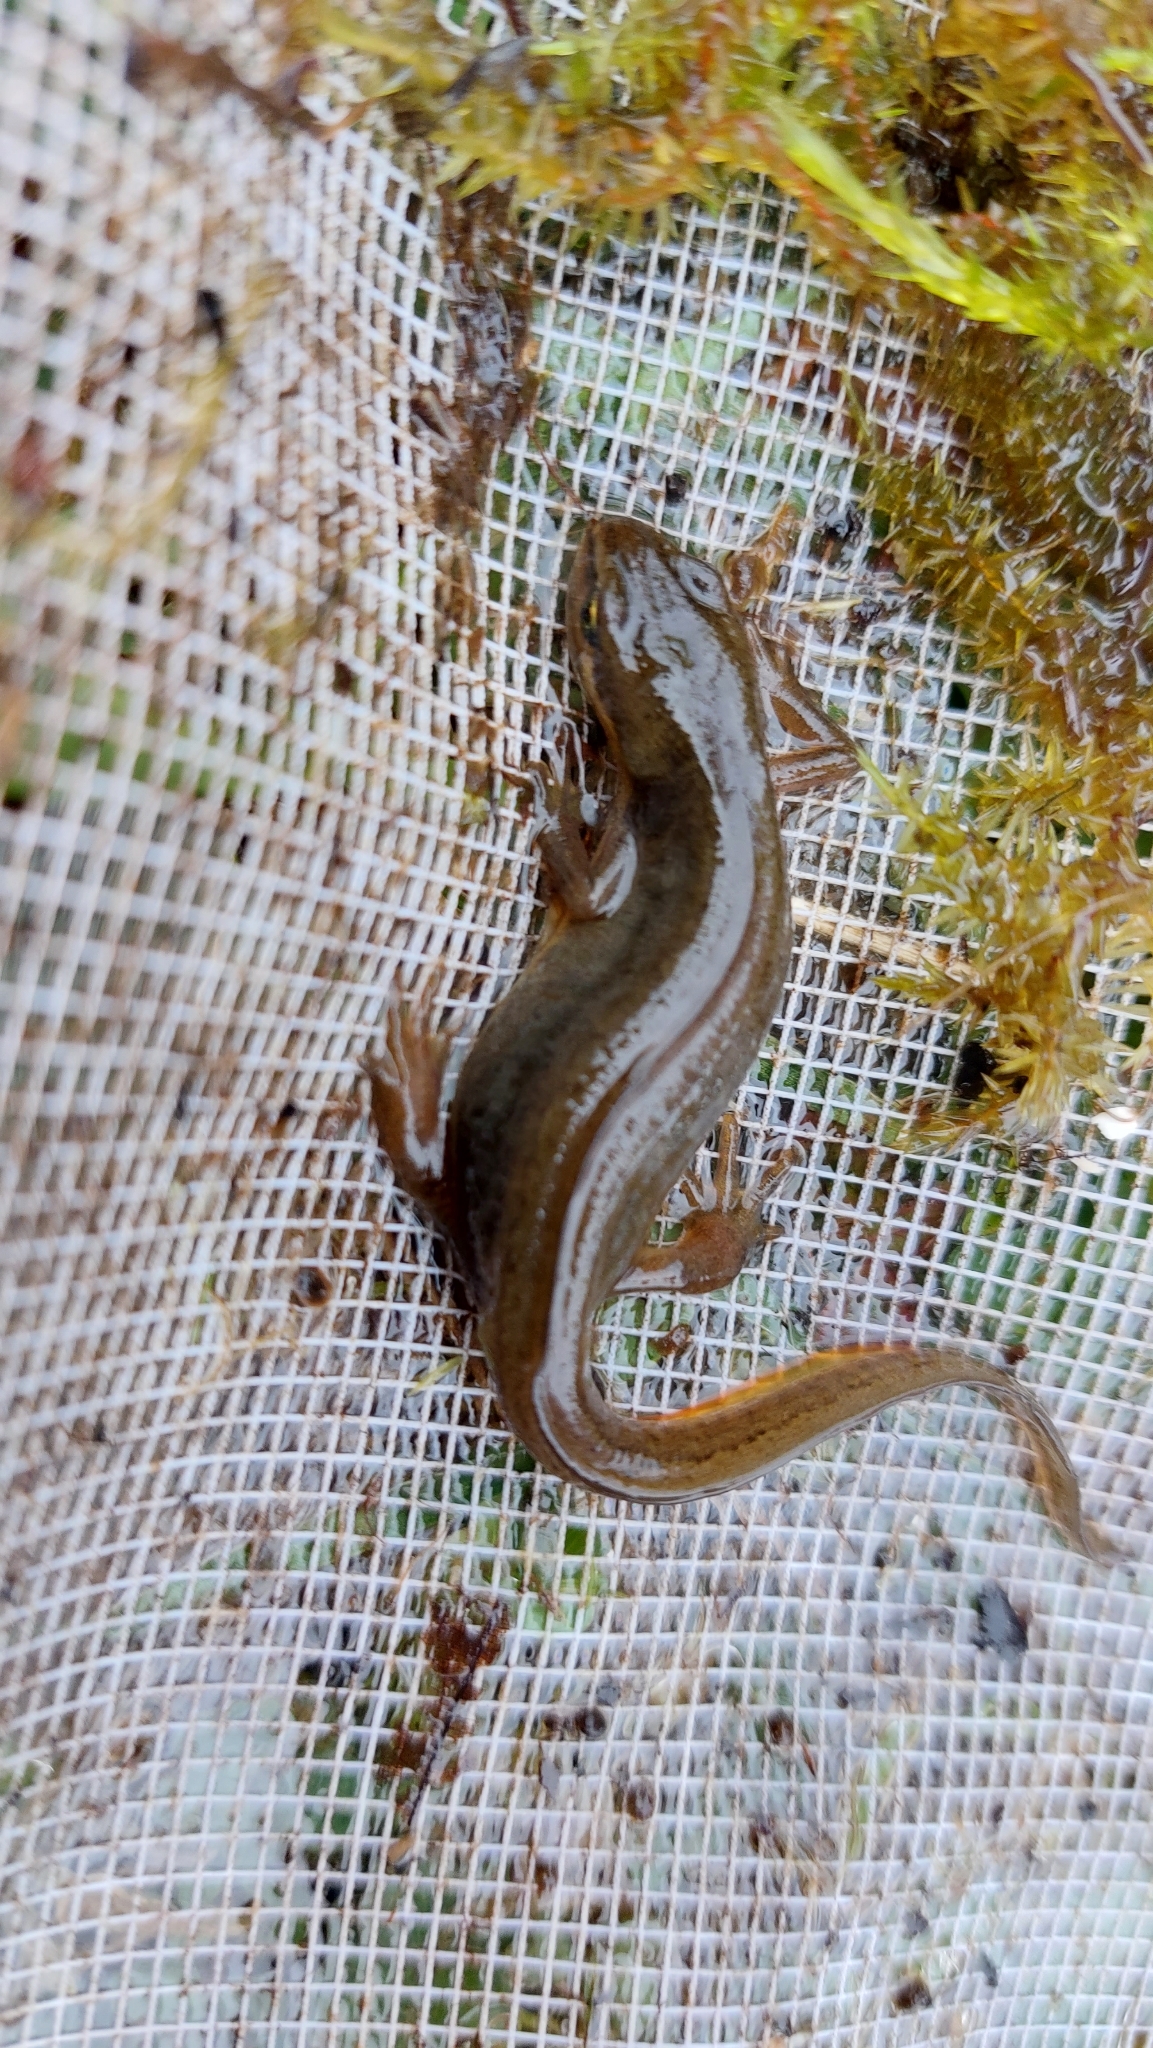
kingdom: Animalia
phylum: Chordata
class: Amphibia
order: Caudata
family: Salamandridae
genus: Lissotriton
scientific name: Lissotriton vulgaris
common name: Smooth newt
